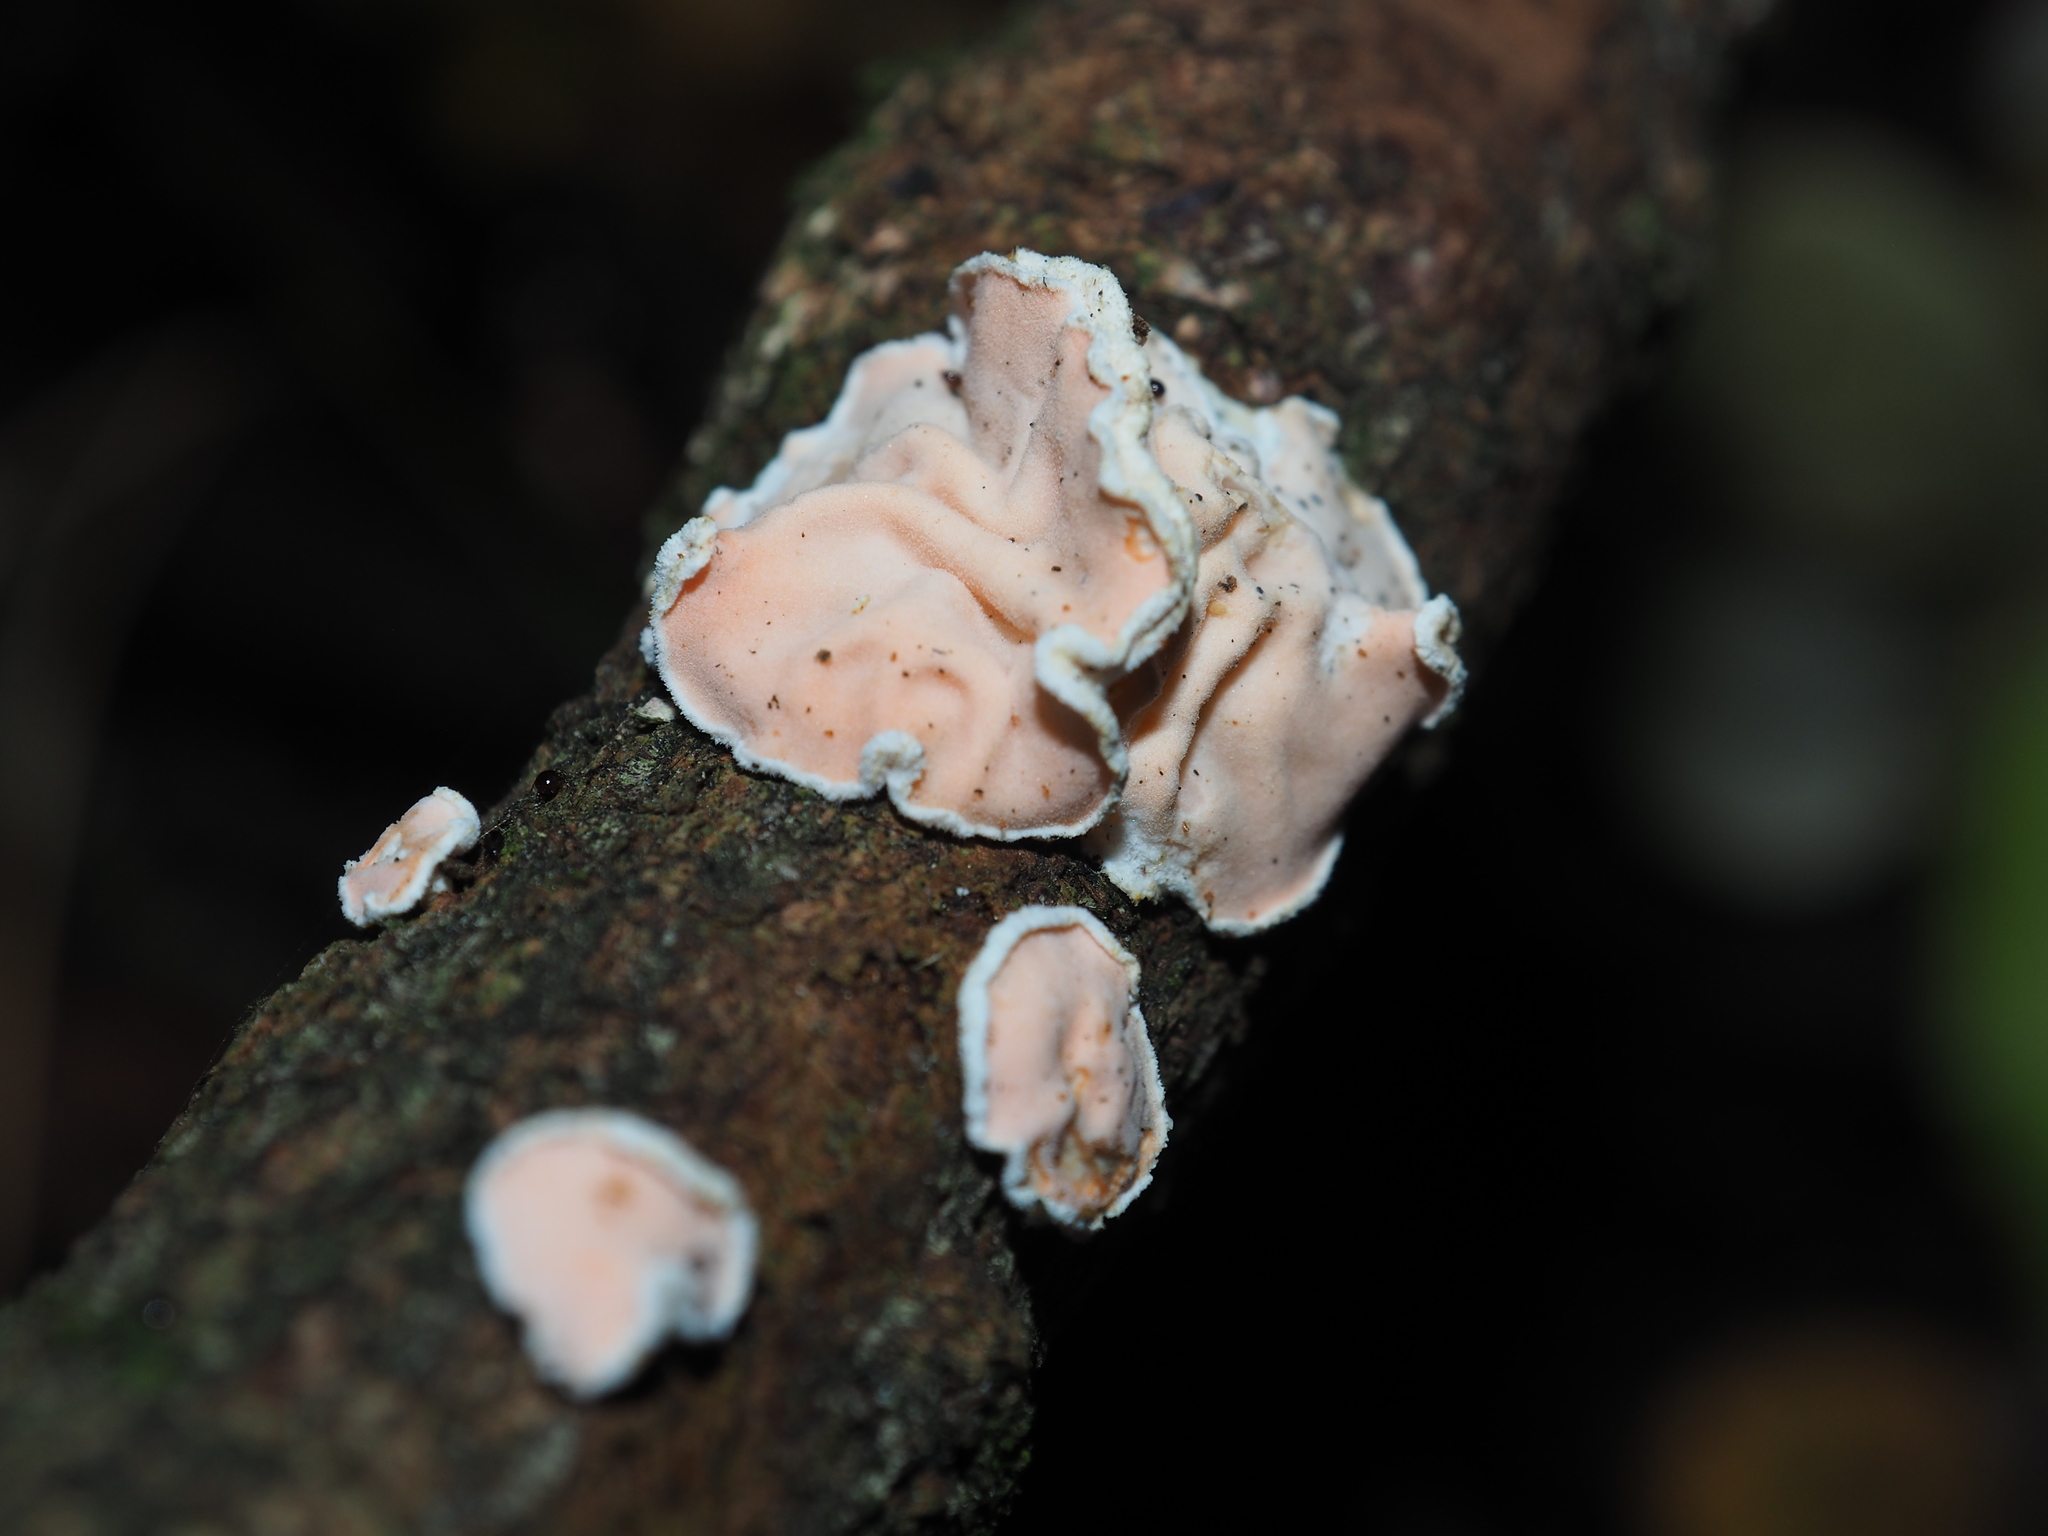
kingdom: Fungi
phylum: Basidiomycota
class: Agaricomycetes
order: Russulales
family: Stereaceae
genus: Gloeosoma
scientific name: Gloeosoma zealandicum
